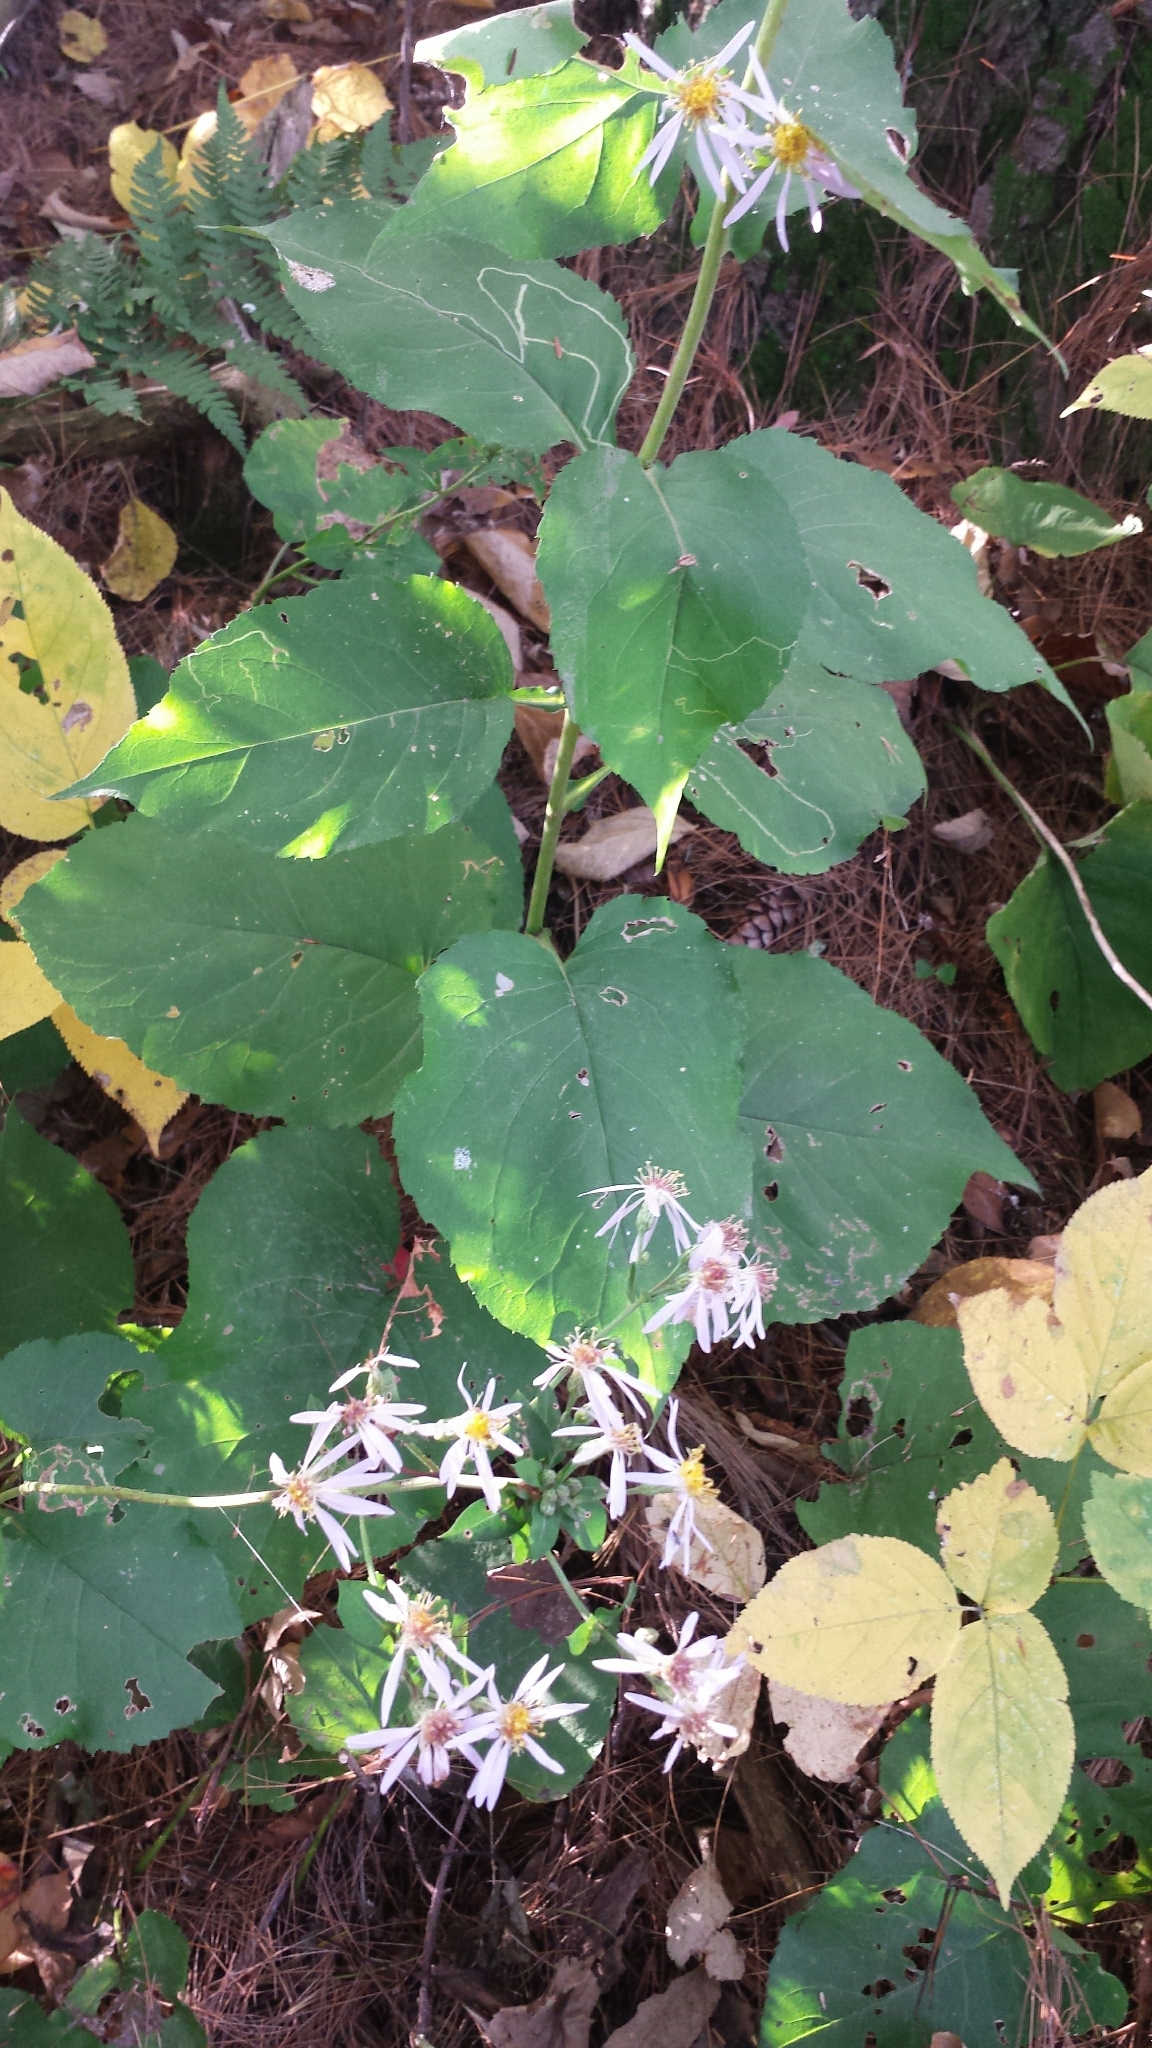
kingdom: Plantae
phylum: Tracheophyta
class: Magnoliopsida
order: Asterales
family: Asteraceae
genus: Eurybia
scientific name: Eurybia macrophylla
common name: Big-leaved aster
